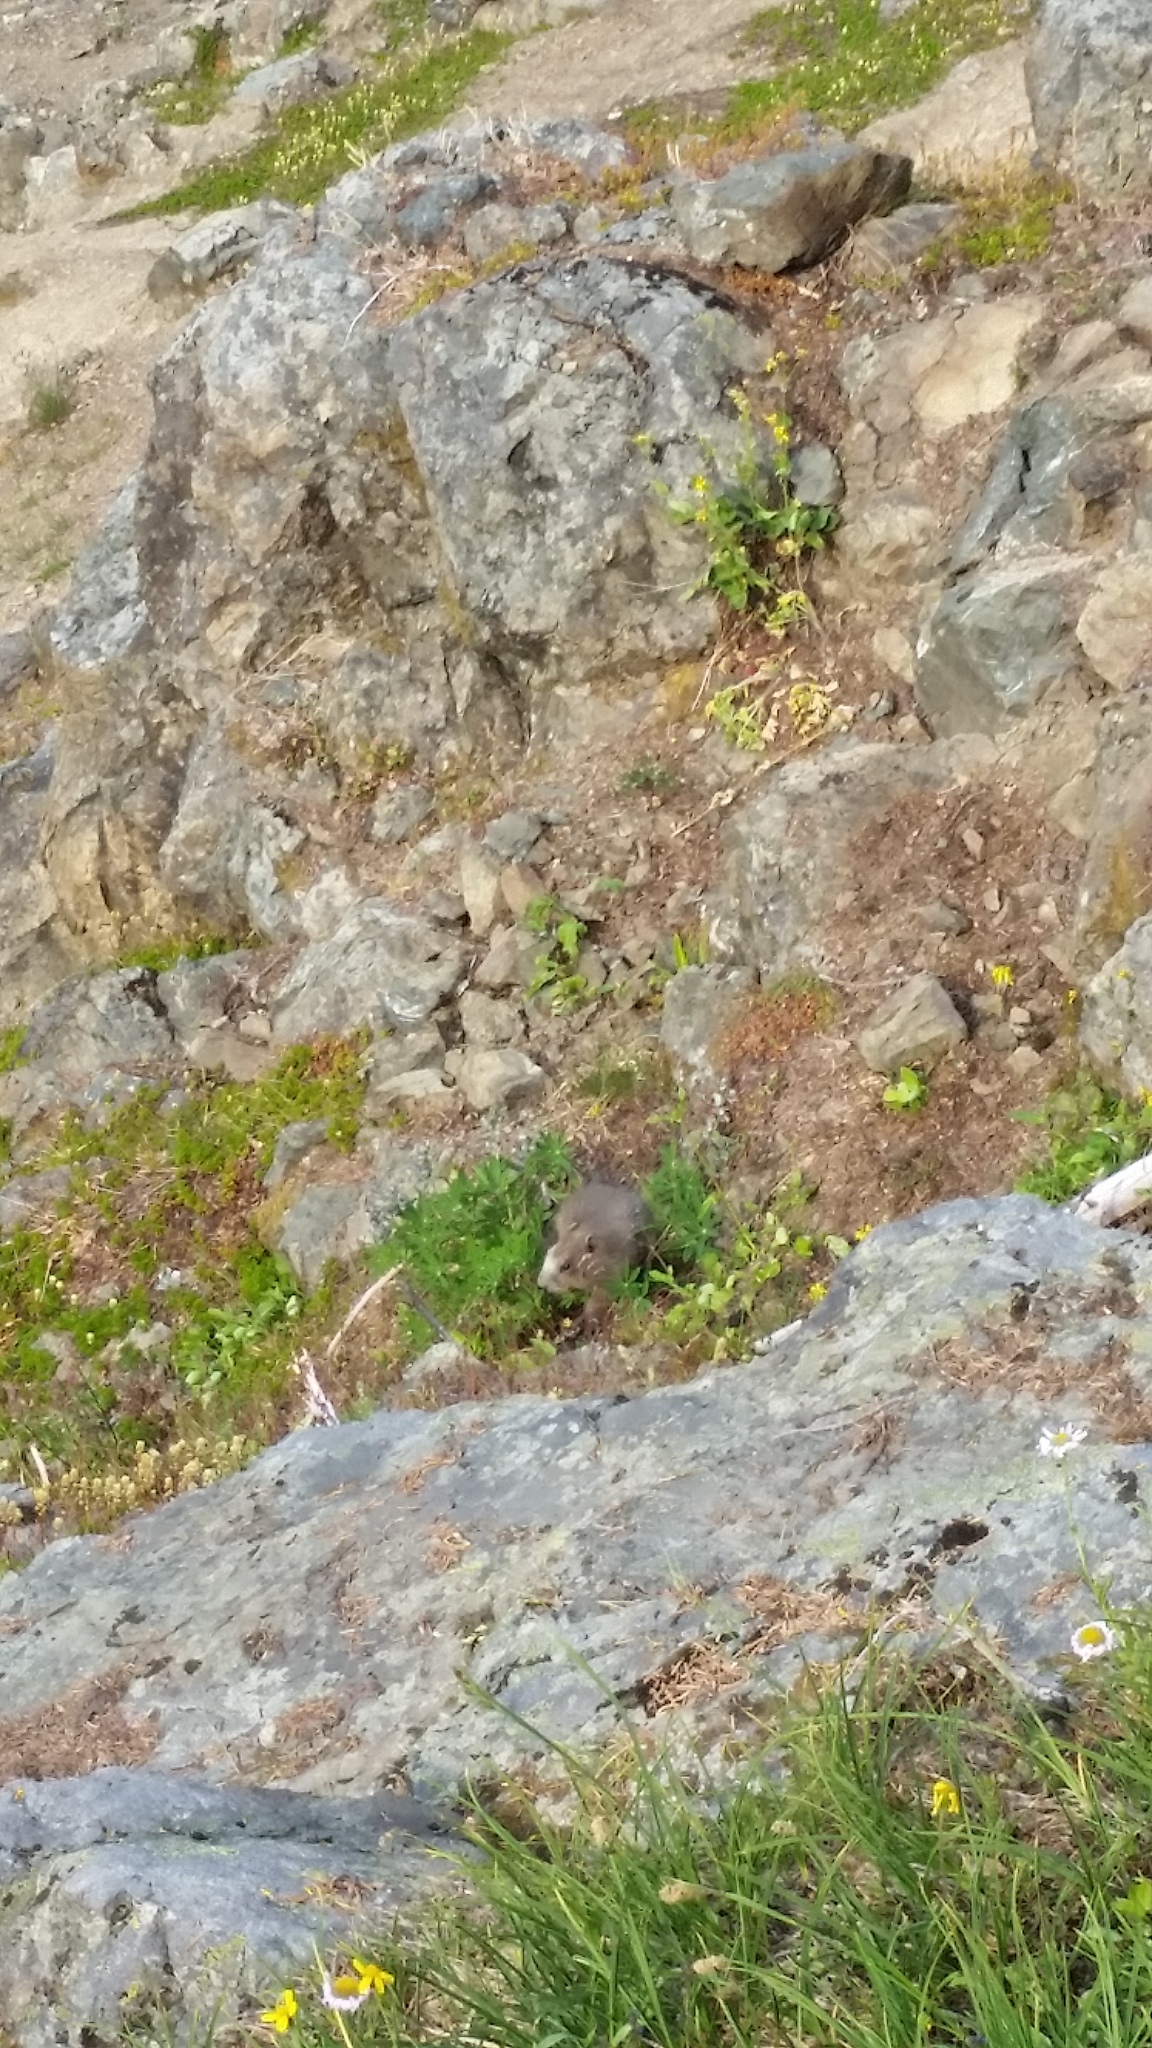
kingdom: Animalia
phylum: Chordata
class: Mammalia
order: Rodentia
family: Sciuridae
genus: Marmota
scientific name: Marmota olympus
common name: Olympic marmot
